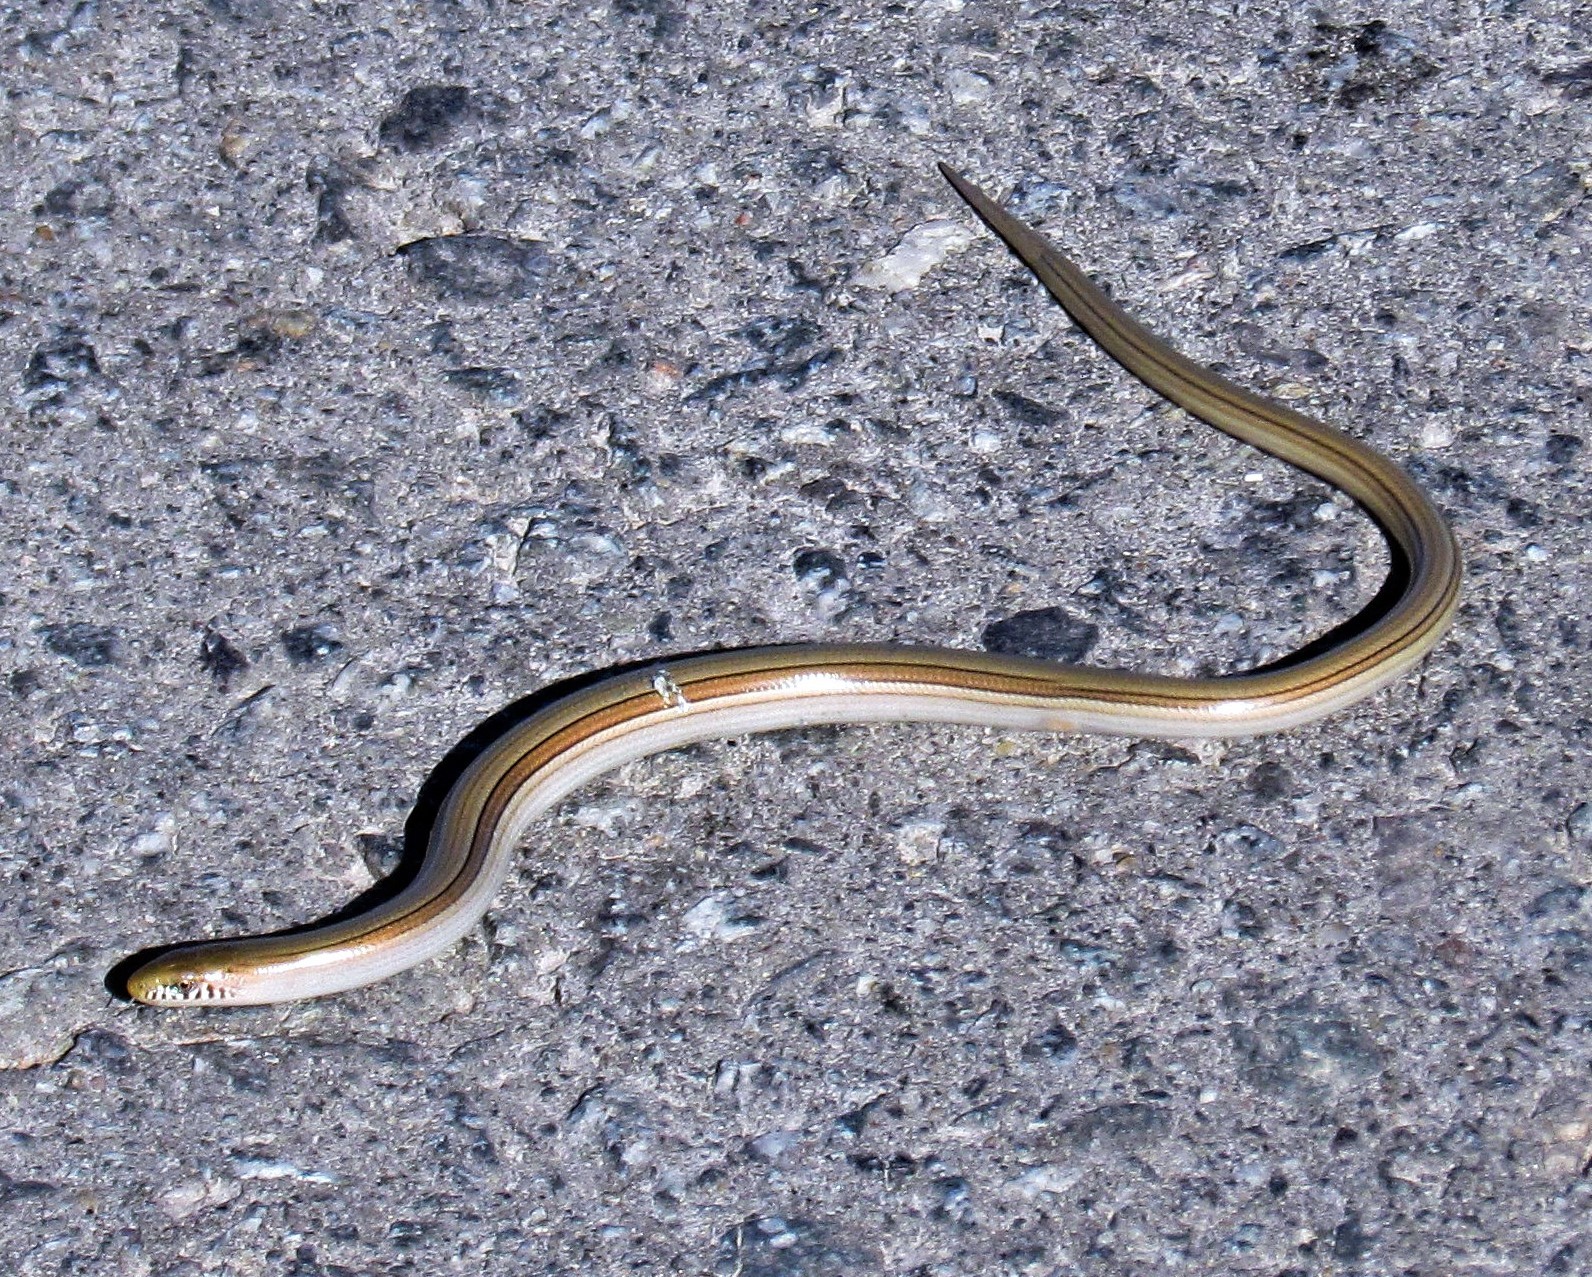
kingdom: Animalia
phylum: Chordata
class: Squamata
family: Diploglossidae
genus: Ophiodes
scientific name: Ophiodes intermedius
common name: Middle worm lizard
